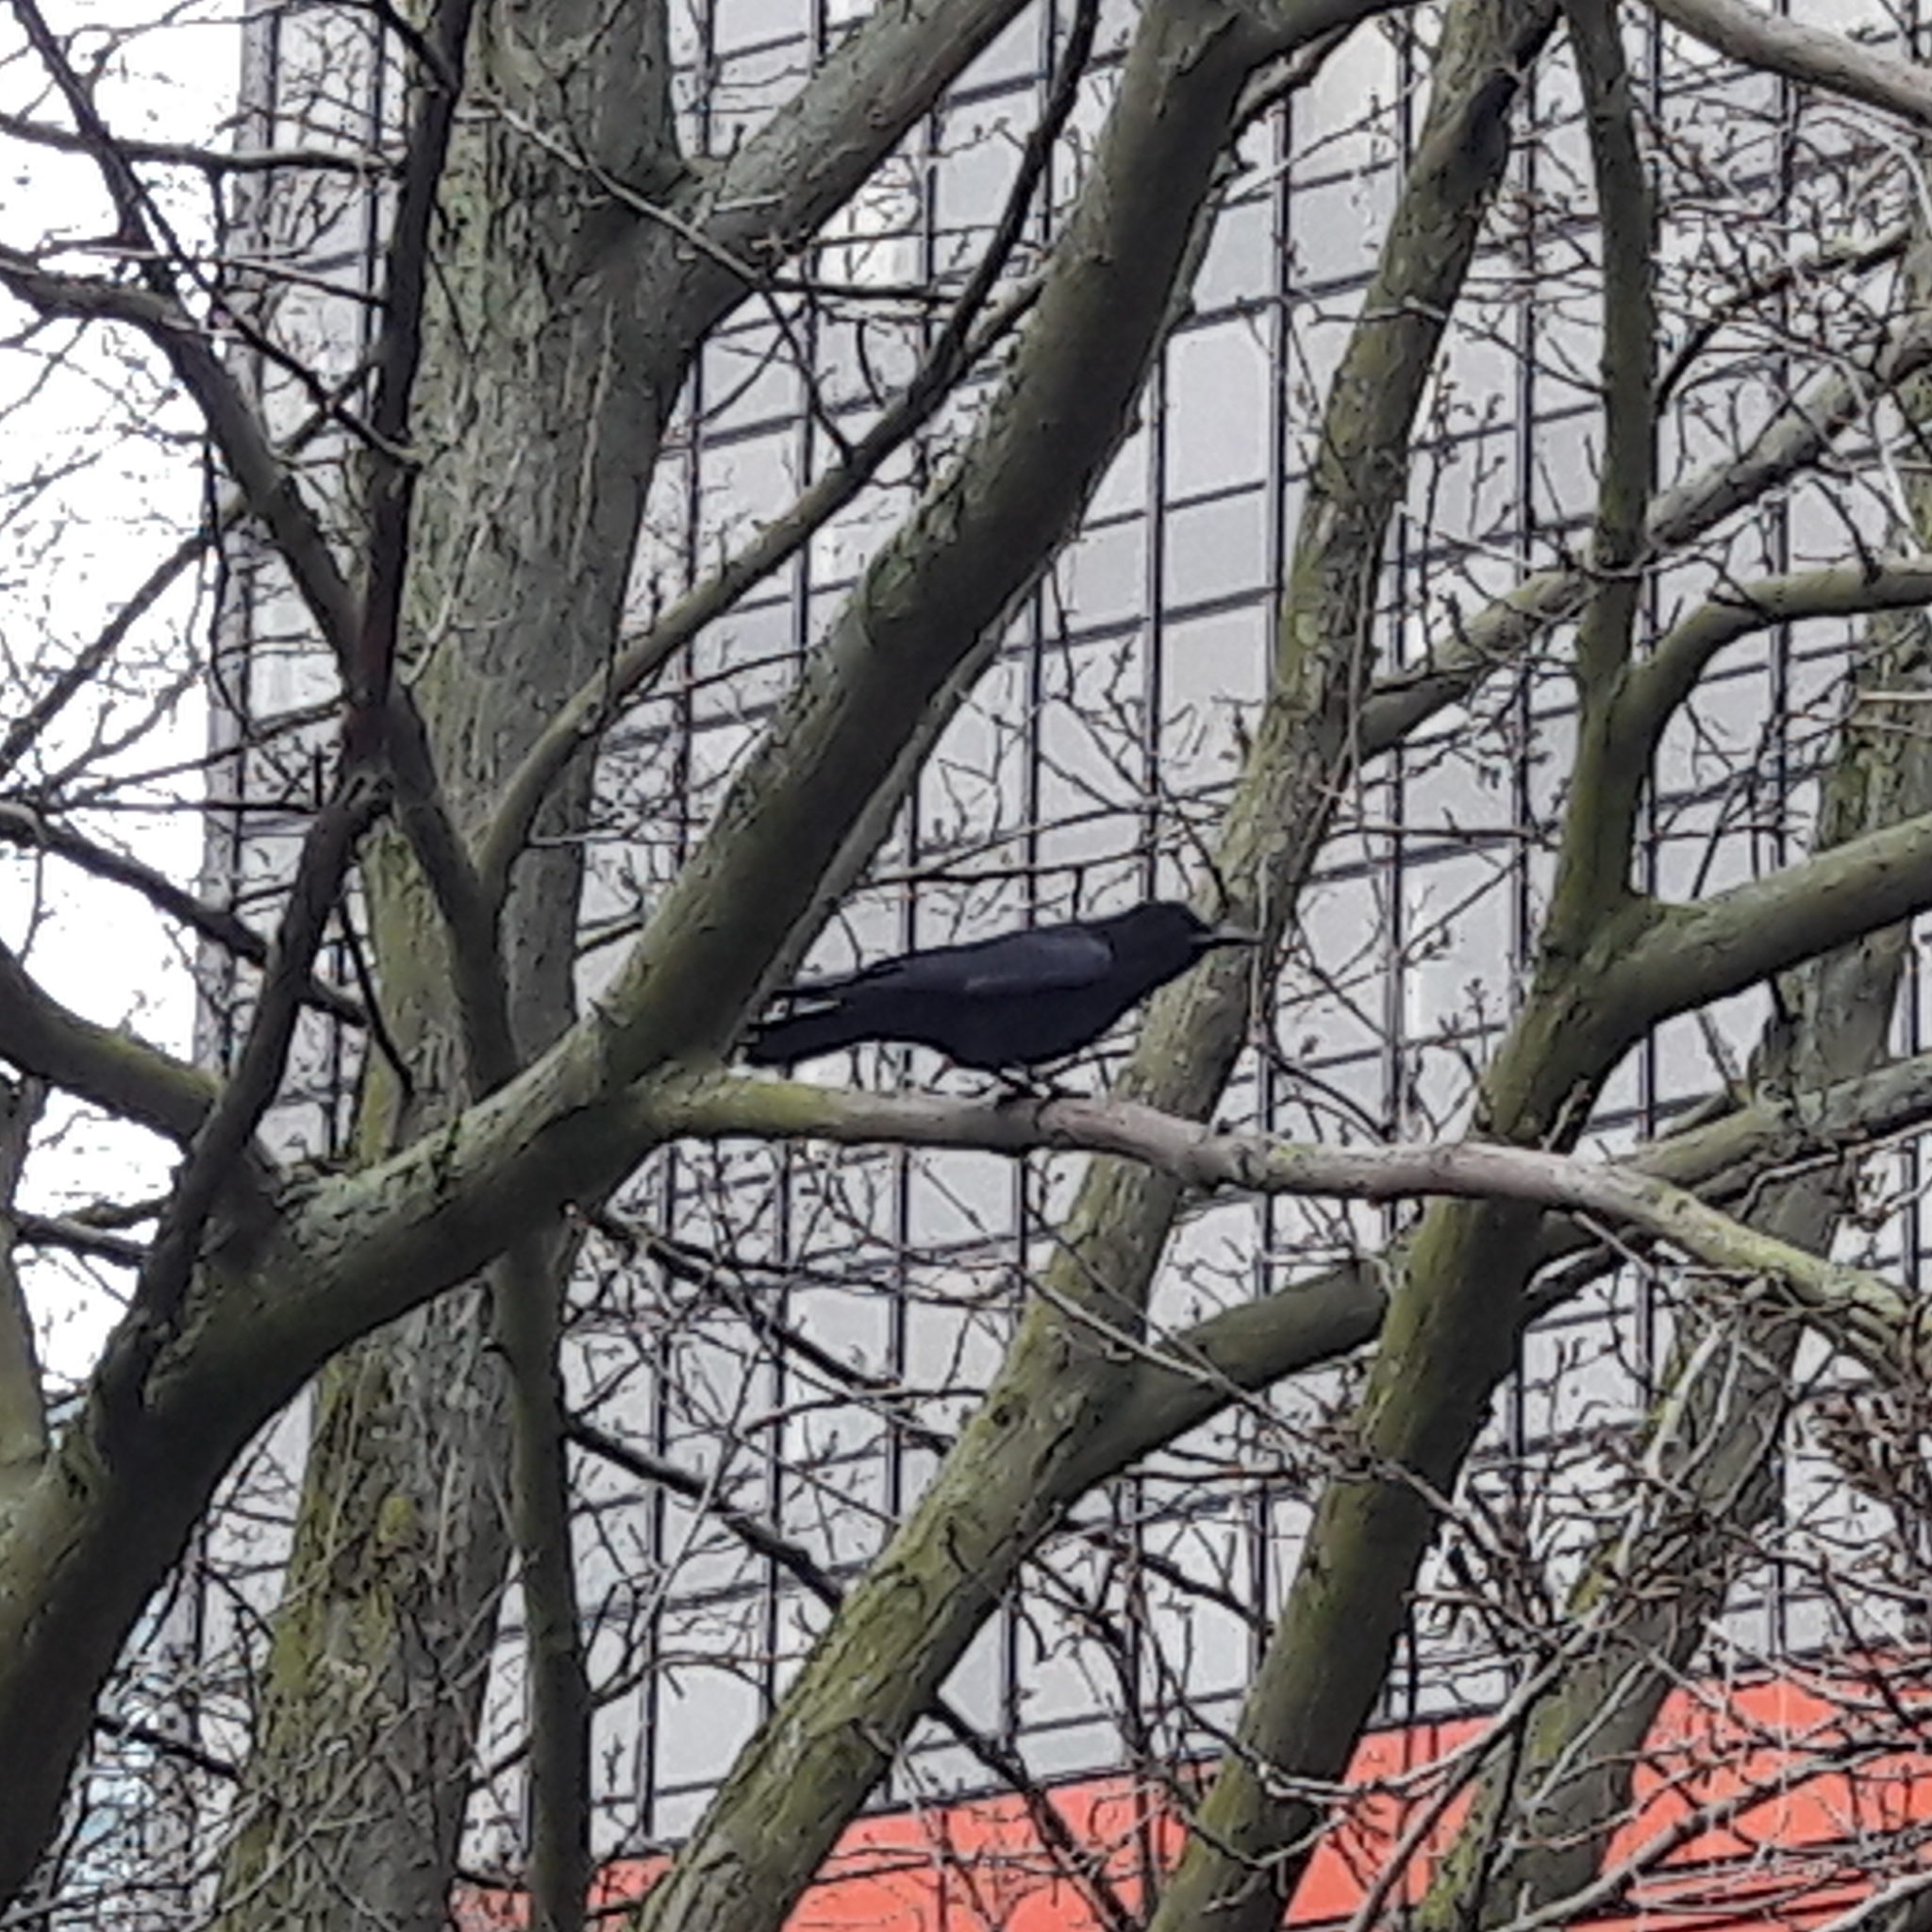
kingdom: Animalia
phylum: Chordata
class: Aves
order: Passeriformes
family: Corvidae
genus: Corvus
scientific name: Corvus corone
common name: Carrion crow
